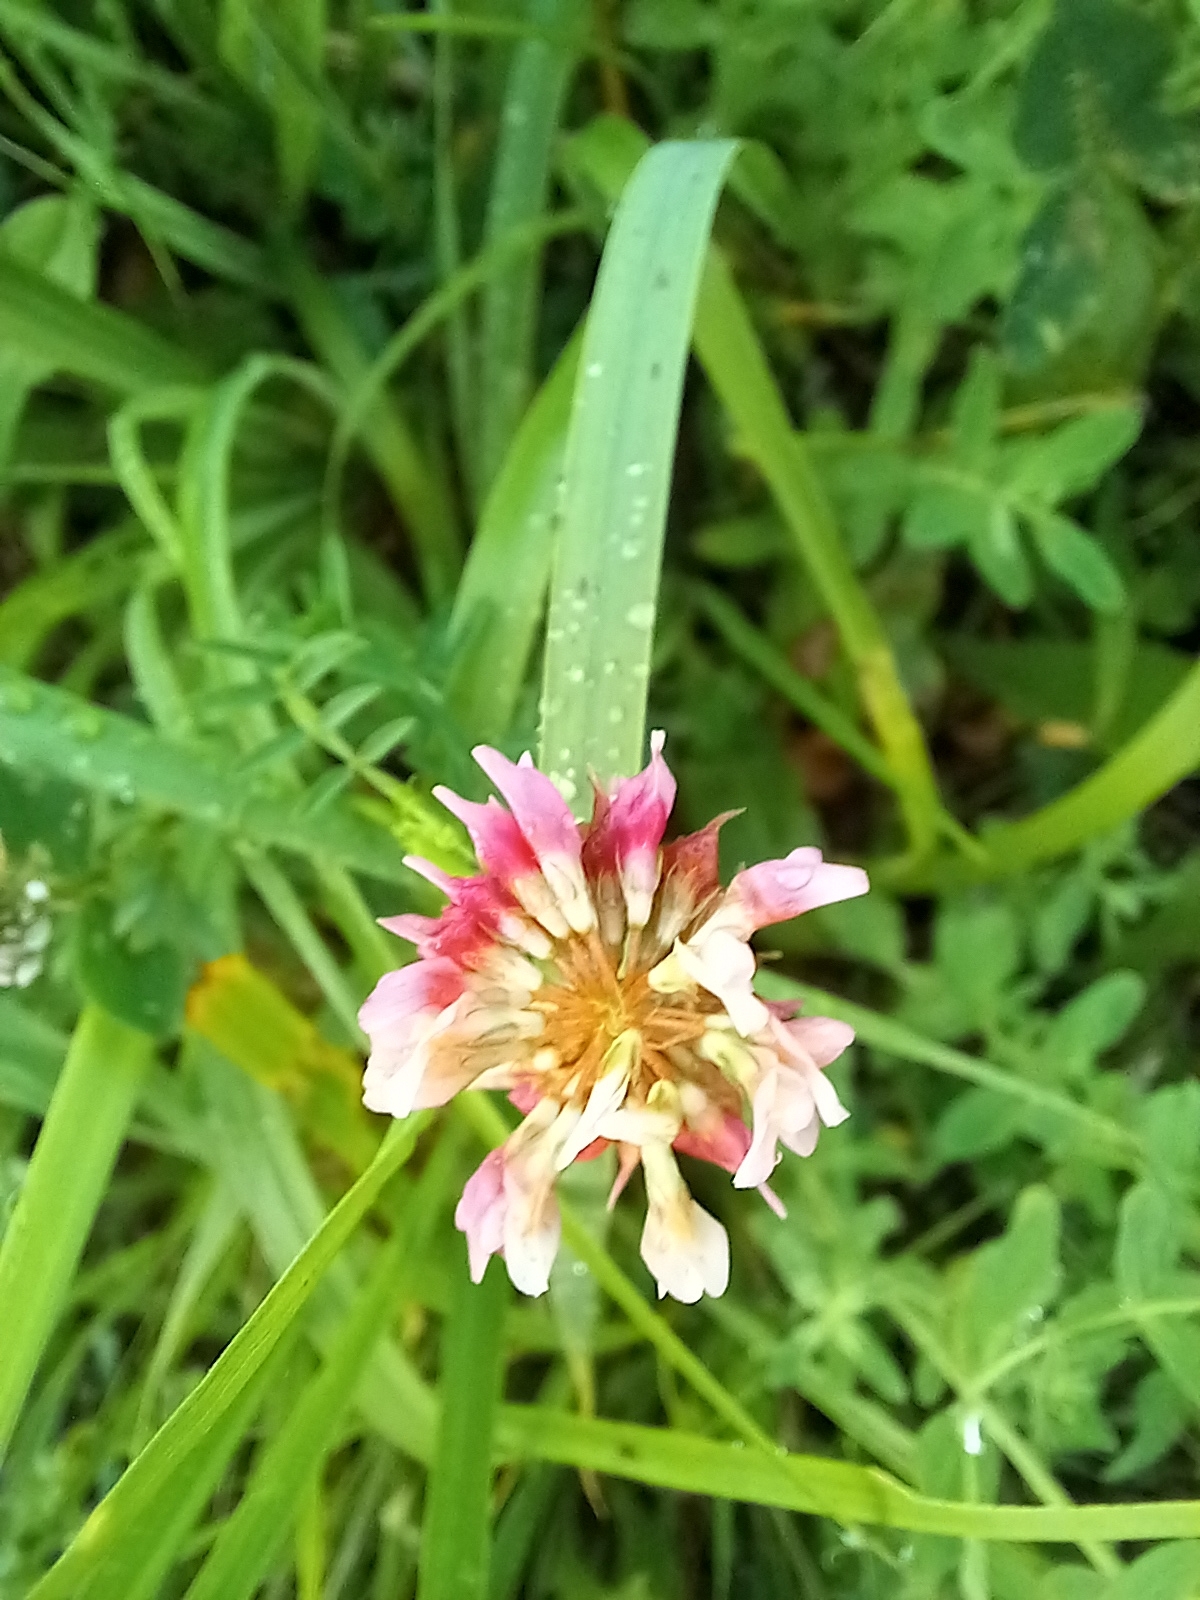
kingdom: Plantae
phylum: Tracheophyta
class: Magnoliopsida
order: Fabales
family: Fabaceae
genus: Trifolium
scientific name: Trifolium hybridum
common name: Alsike clover
